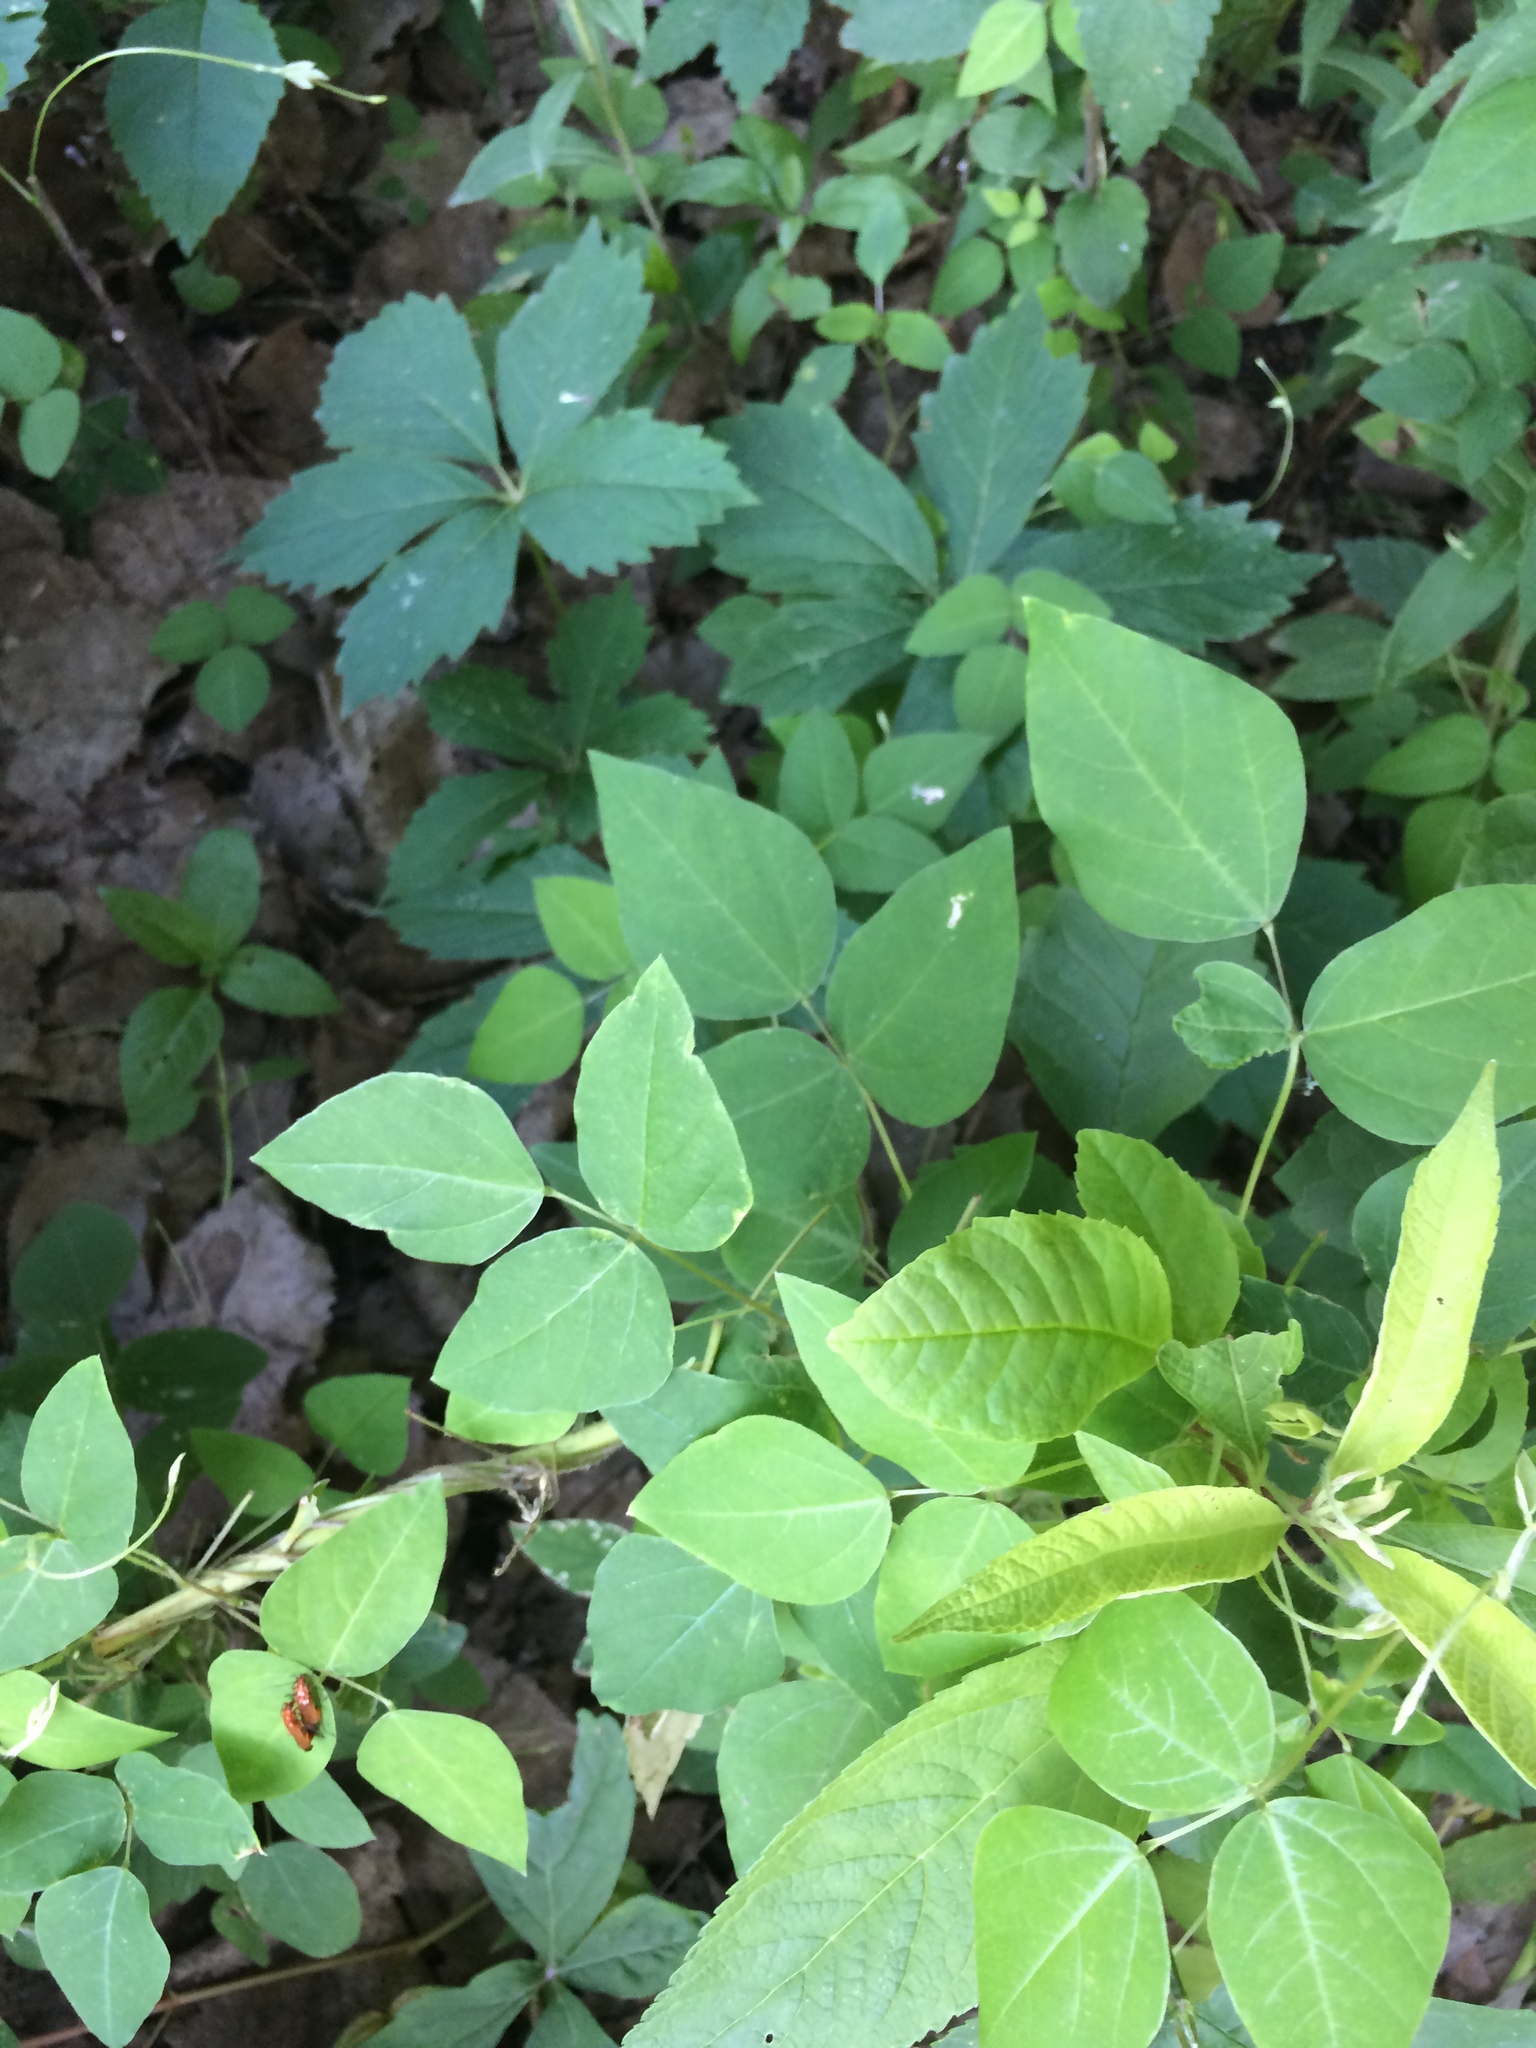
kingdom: Plantae
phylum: Tracheophyta
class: Magnoliopsida
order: Fabales
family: Fabaceae
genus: Amphicarpaea
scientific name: Amphicarpaea bracteata
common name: American hog peanut
